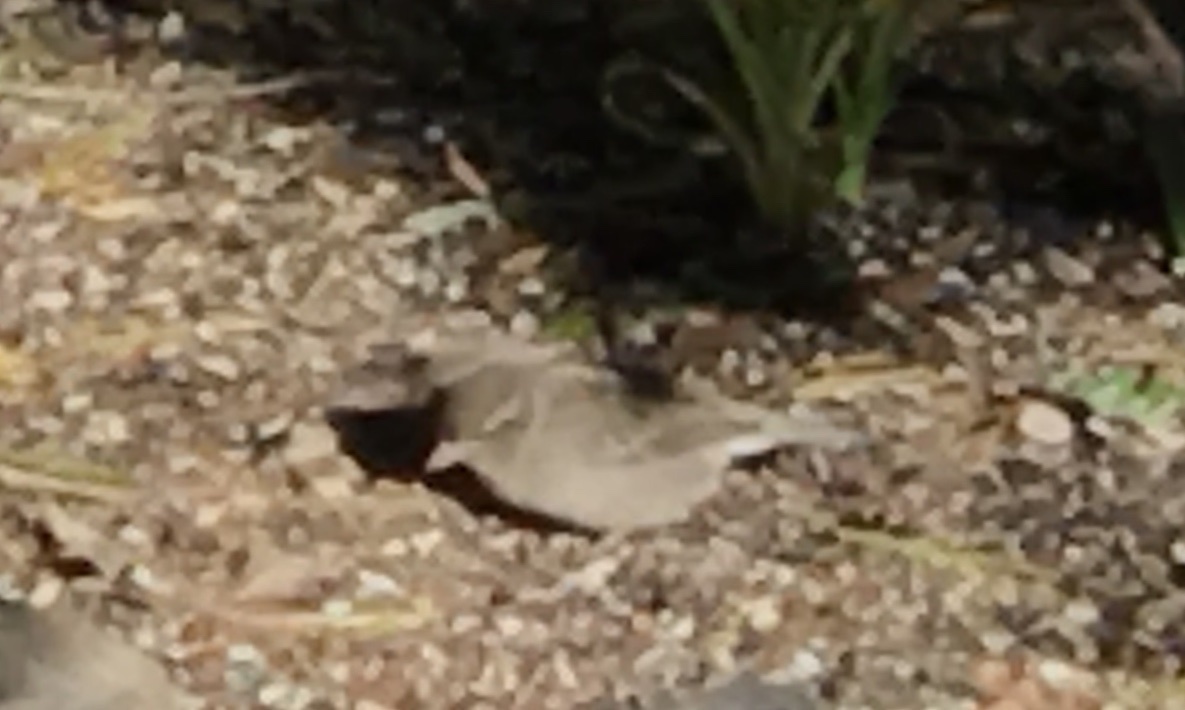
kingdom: Animalia
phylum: Chordata
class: Aves
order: Passeriformes
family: Passeridae
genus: Passer
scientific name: Passer domesticus
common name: House sparrow
